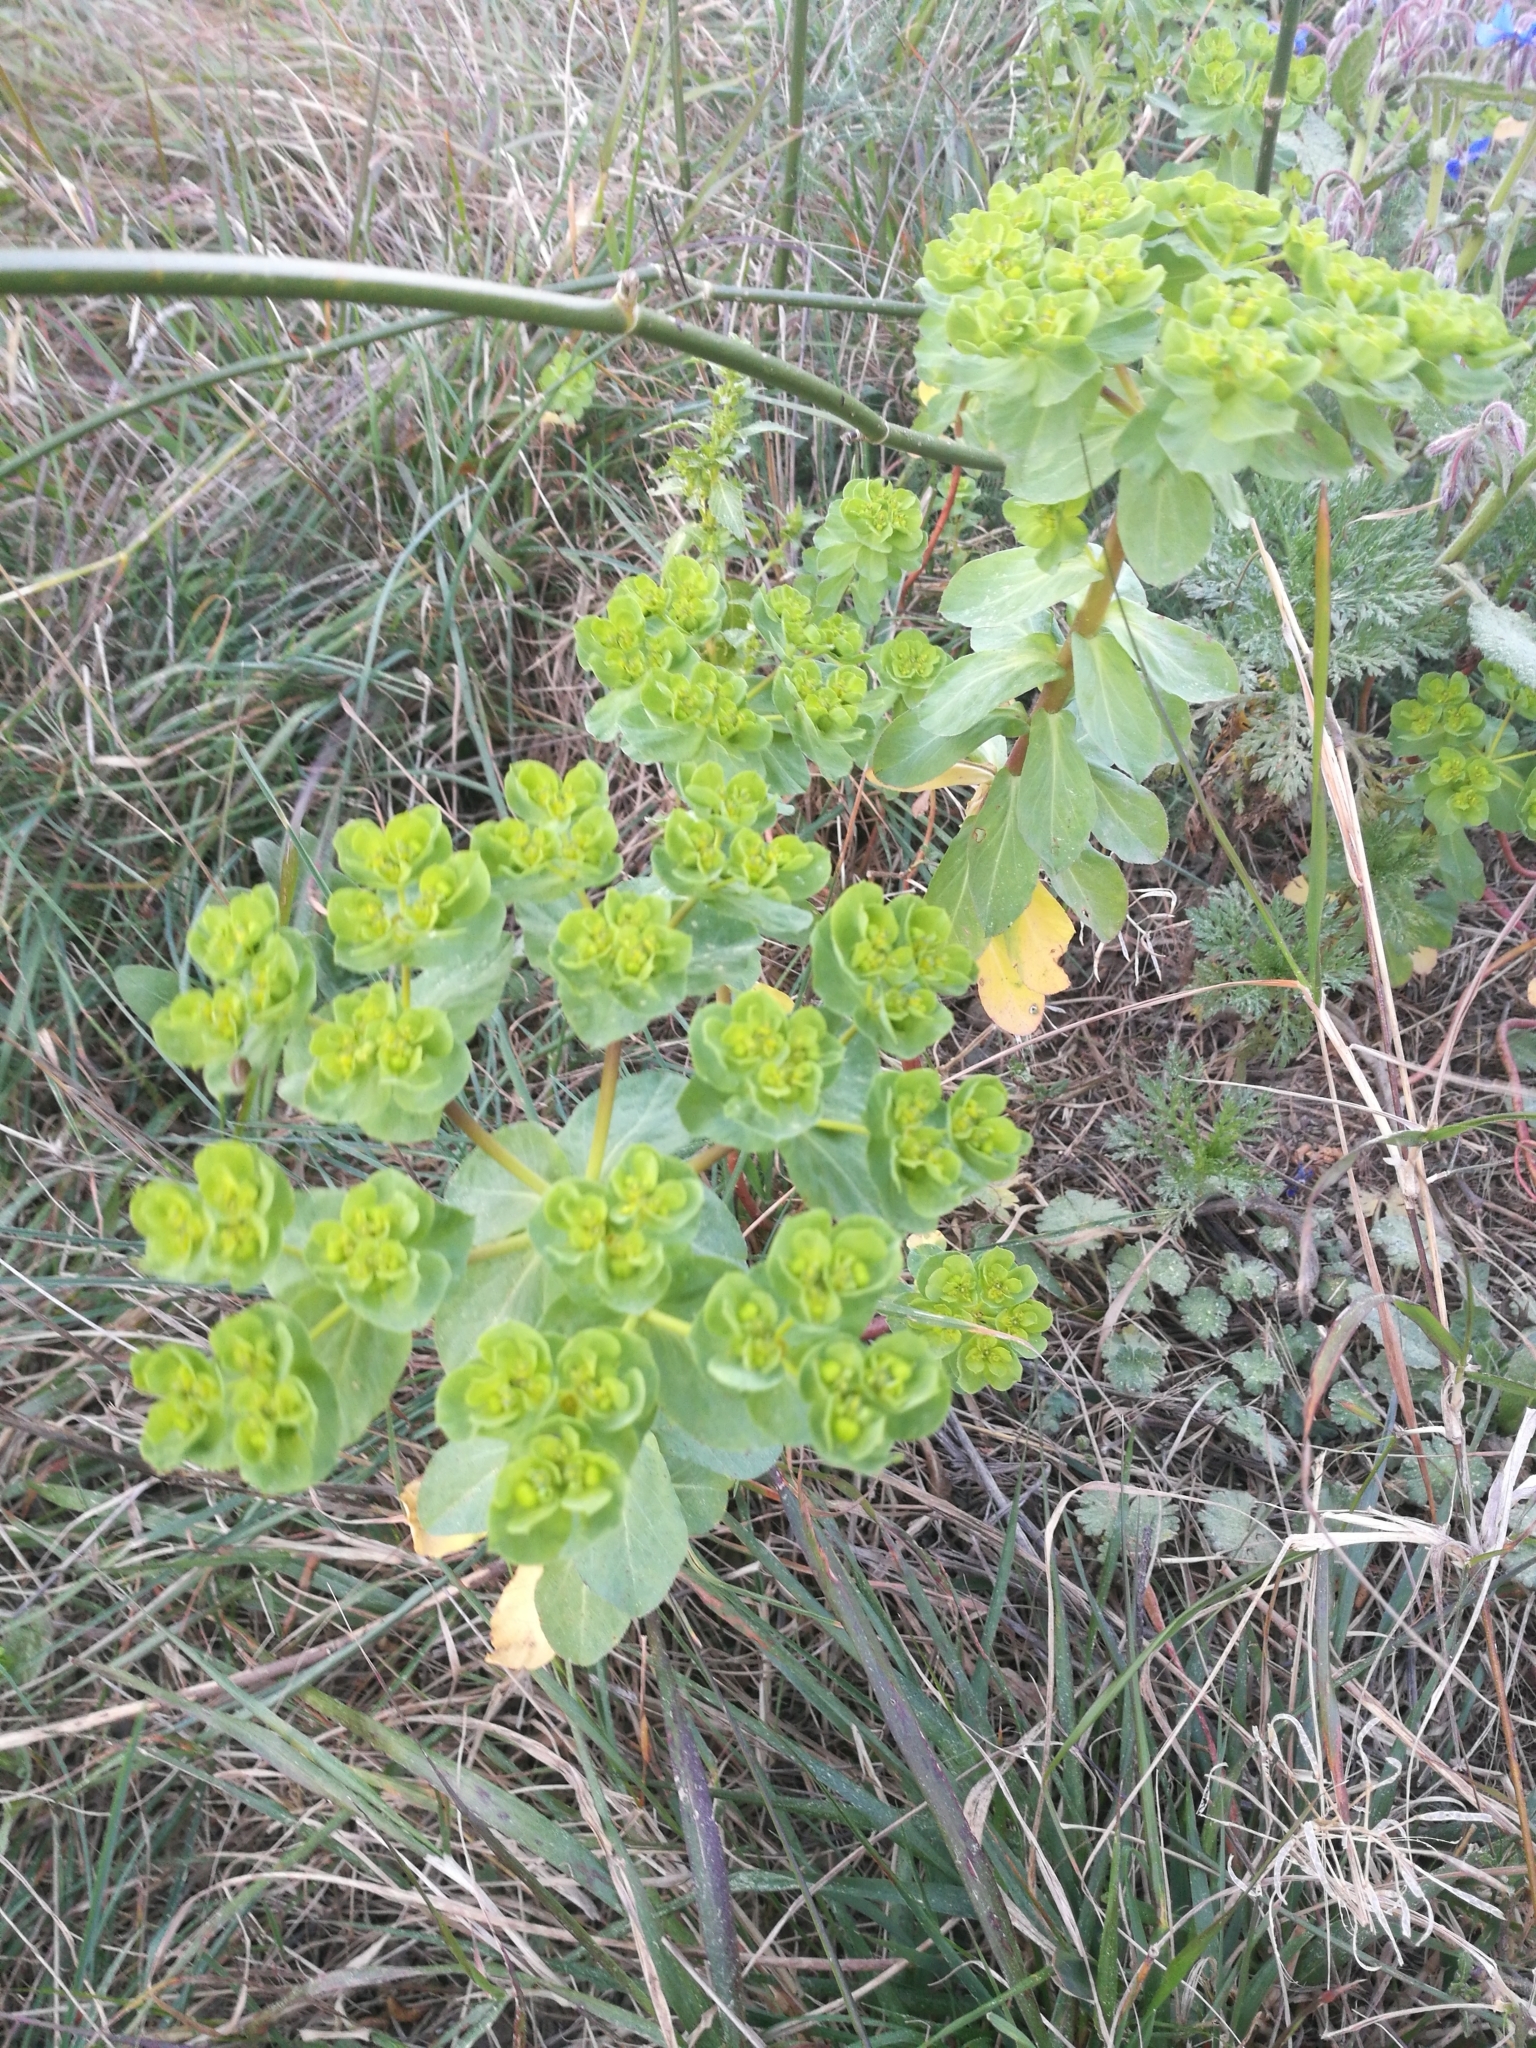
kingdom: Plantae
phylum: Tracheophyta
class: Magnoliopsida
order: Malpighiales
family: Euphorbiaceae
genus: Euphorbia
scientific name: Euphorbia helioscopia
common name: Sun spurge
